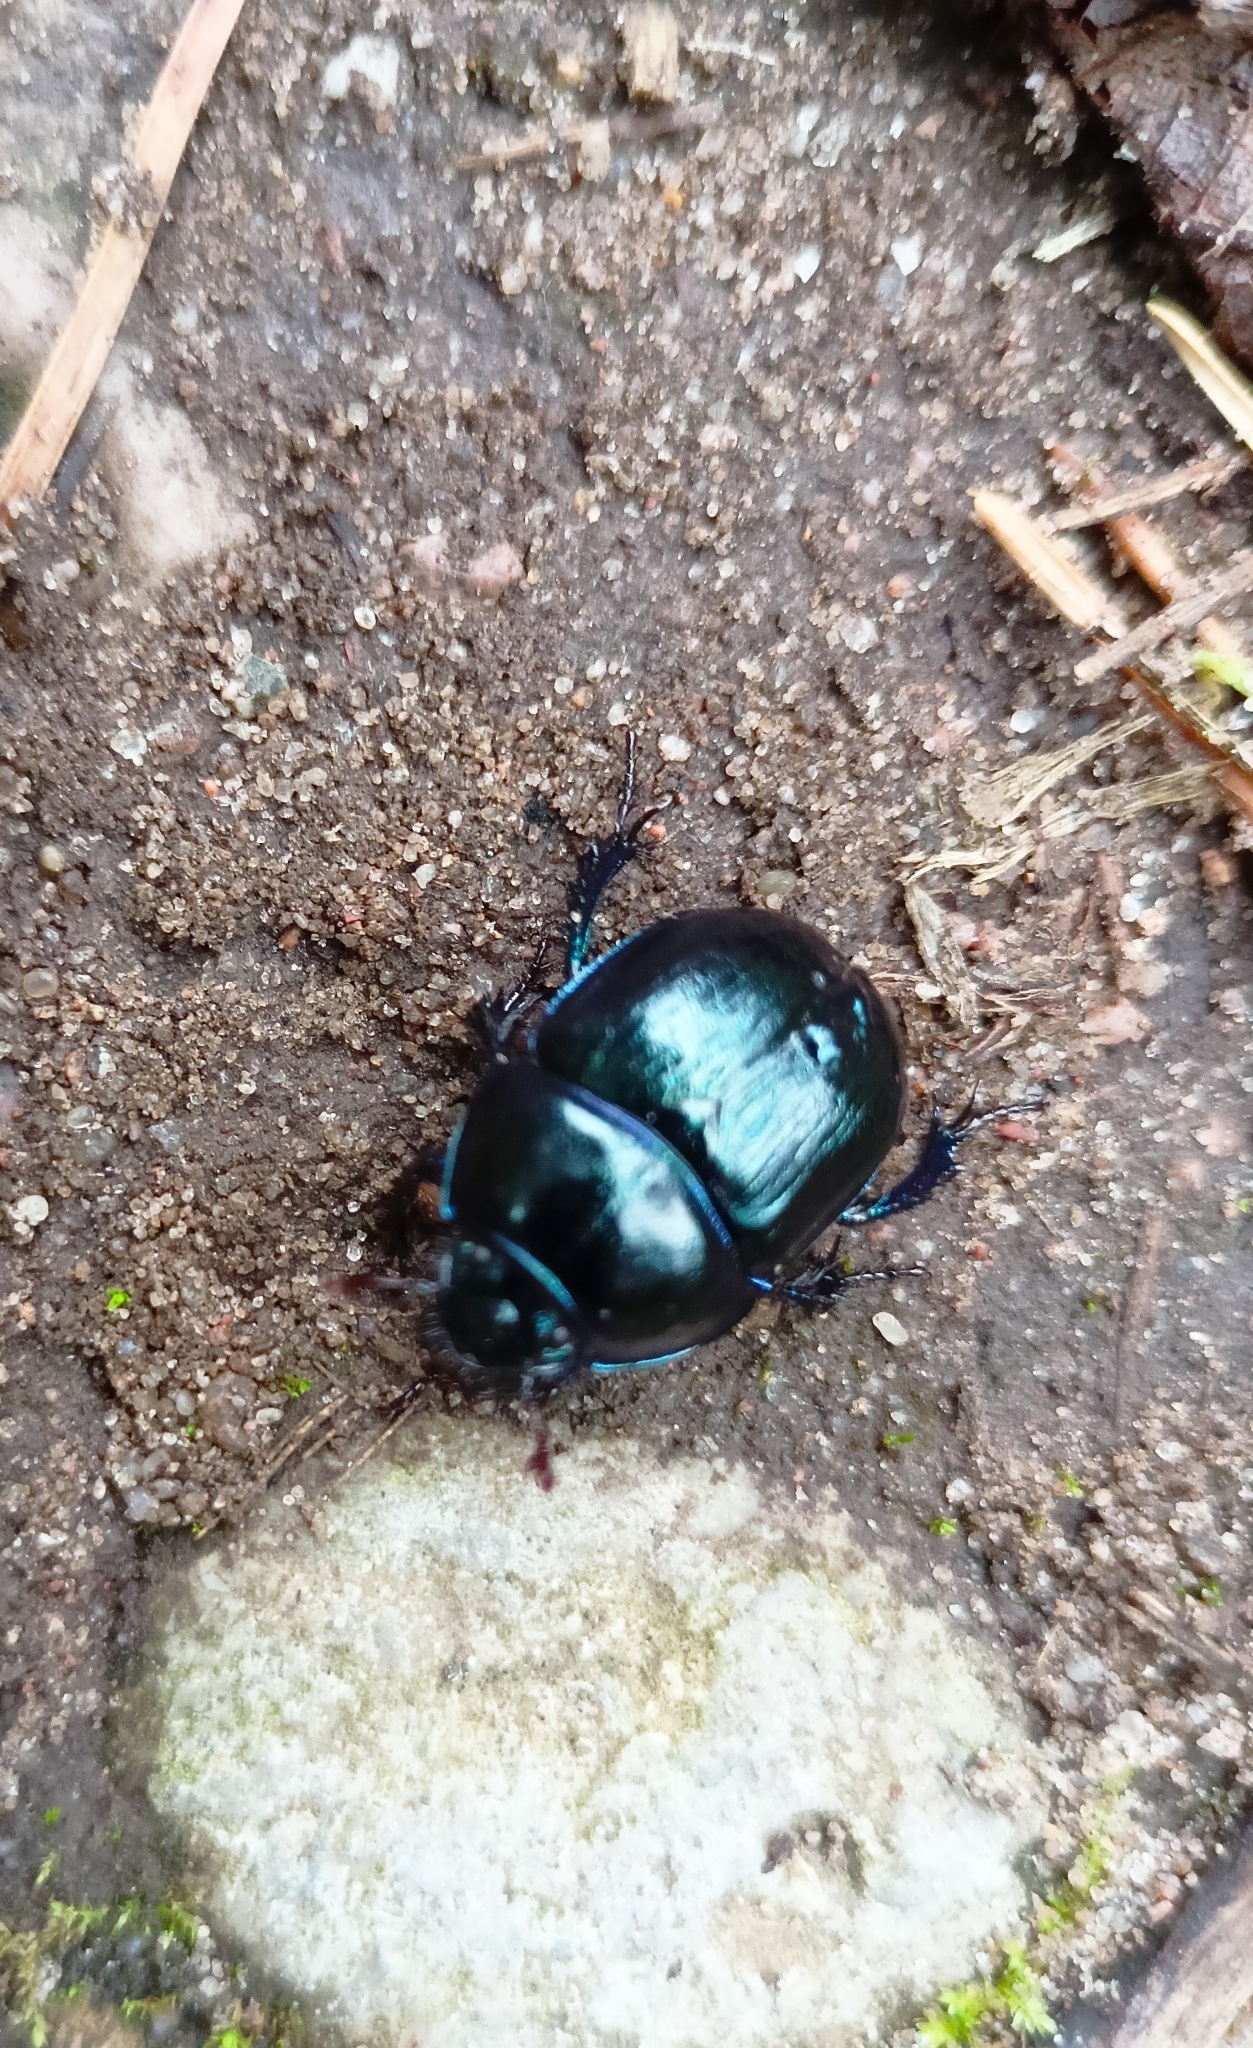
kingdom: Animalia
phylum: Arthropoda
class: Insecta
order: Coleoptera
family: Geotrupidae
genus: Anoplotrupes
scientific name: Anoplotrupes stercorosus
